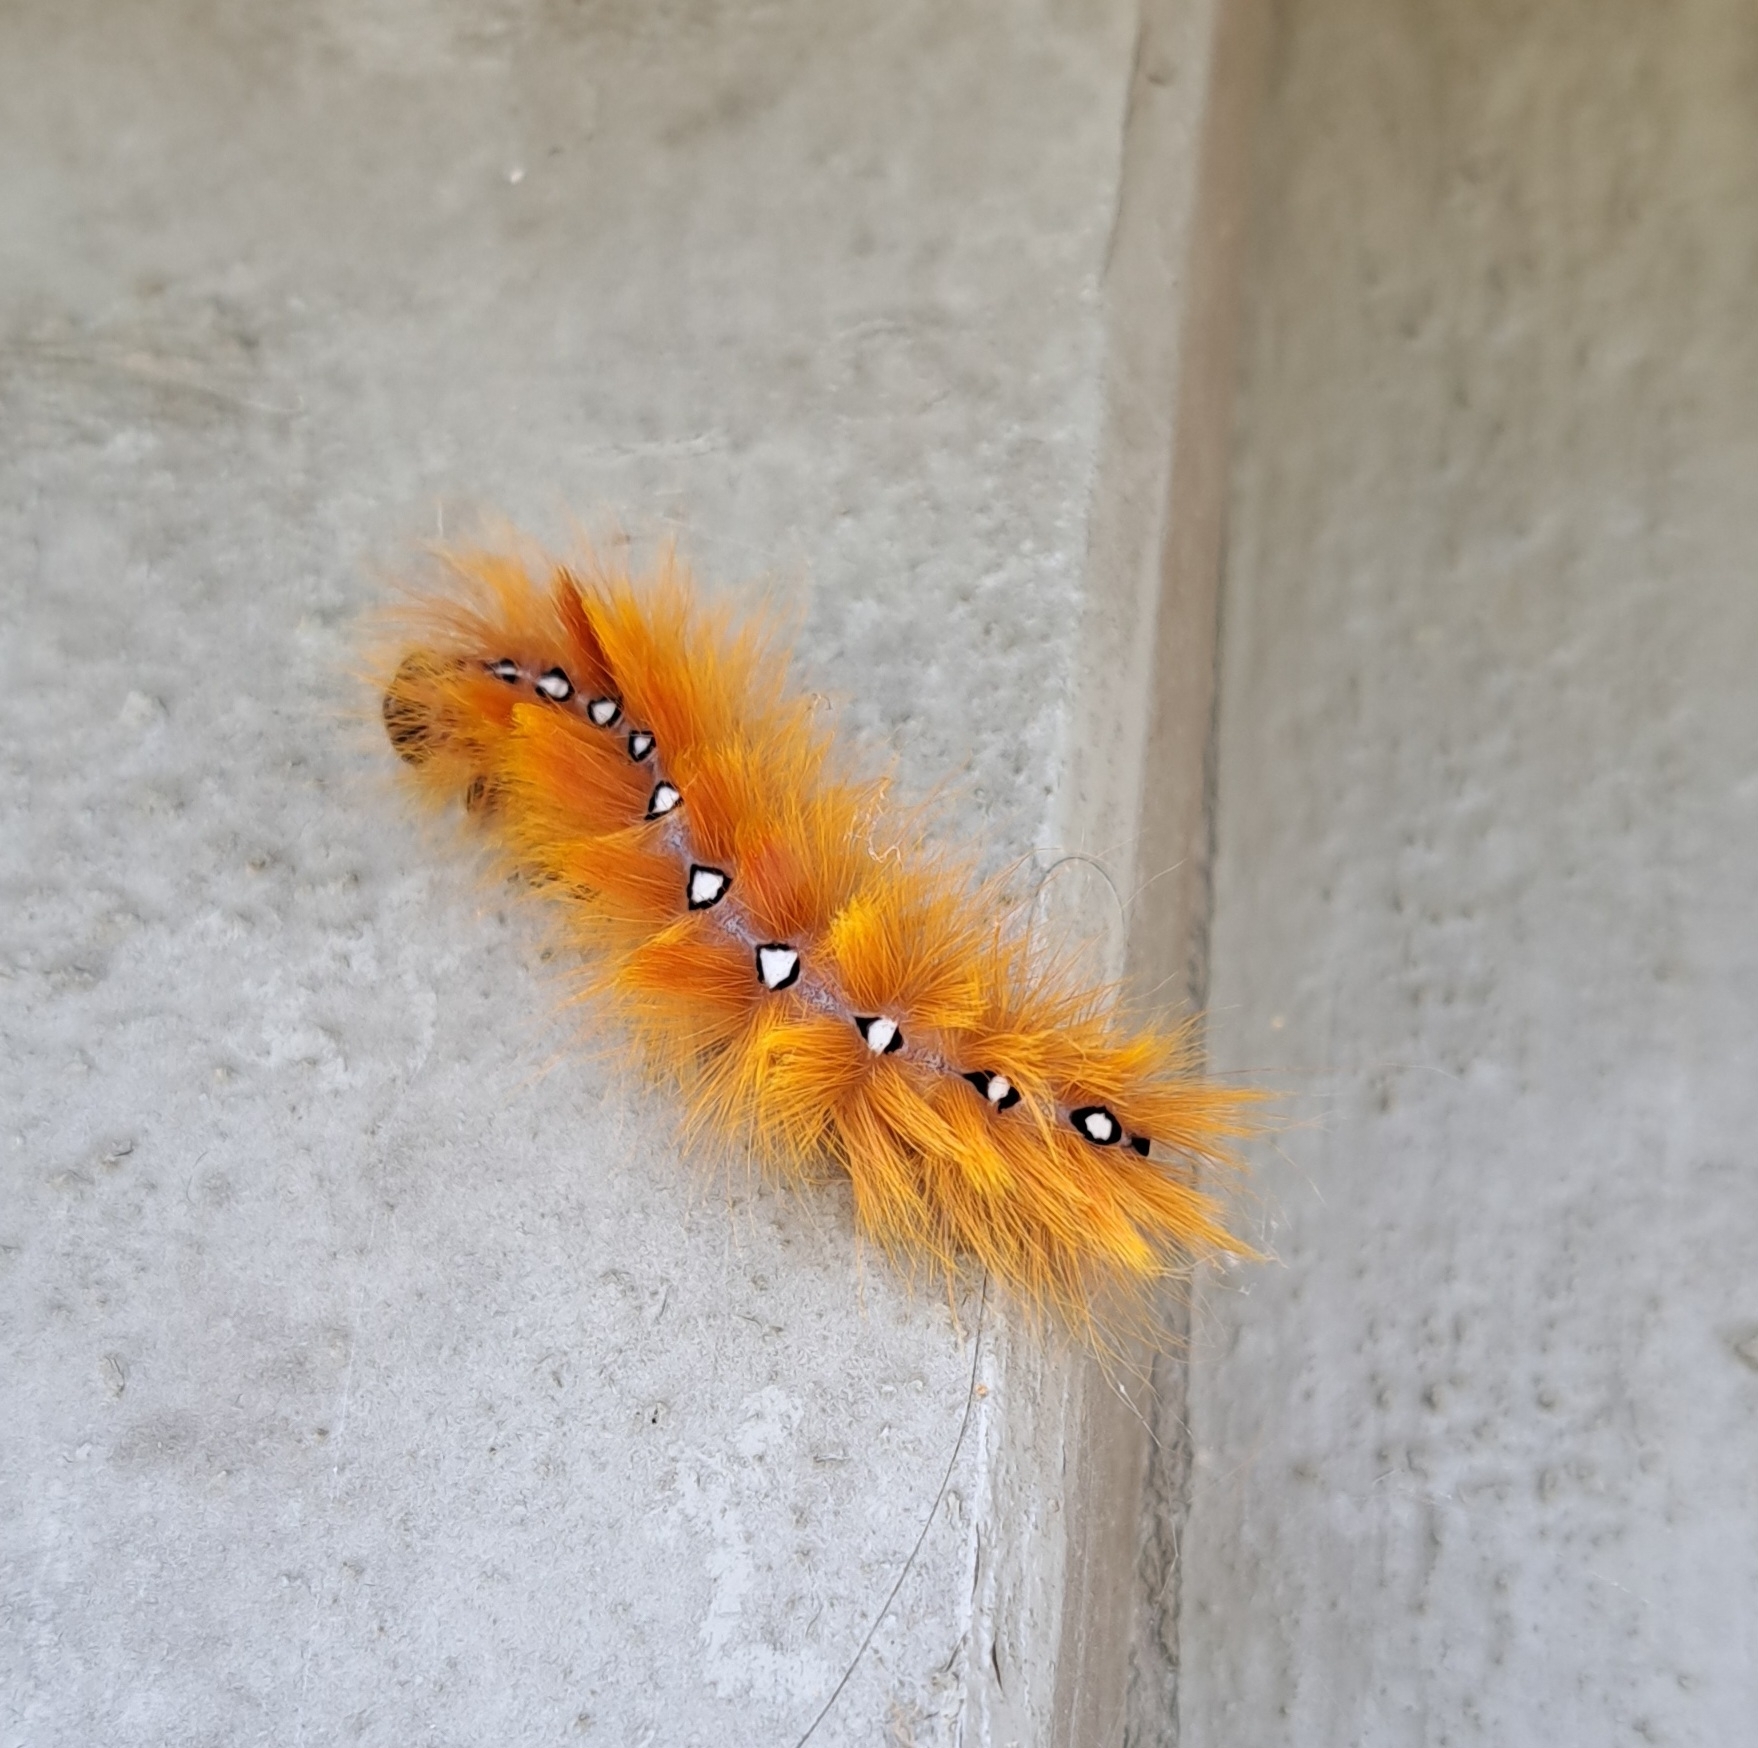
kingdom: Animalia
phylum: Arthropoda
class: Insecta
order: Lepidoptera
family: Noctuidae
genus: Acronicta
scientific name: Acronicta aceris
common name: Sycamore
